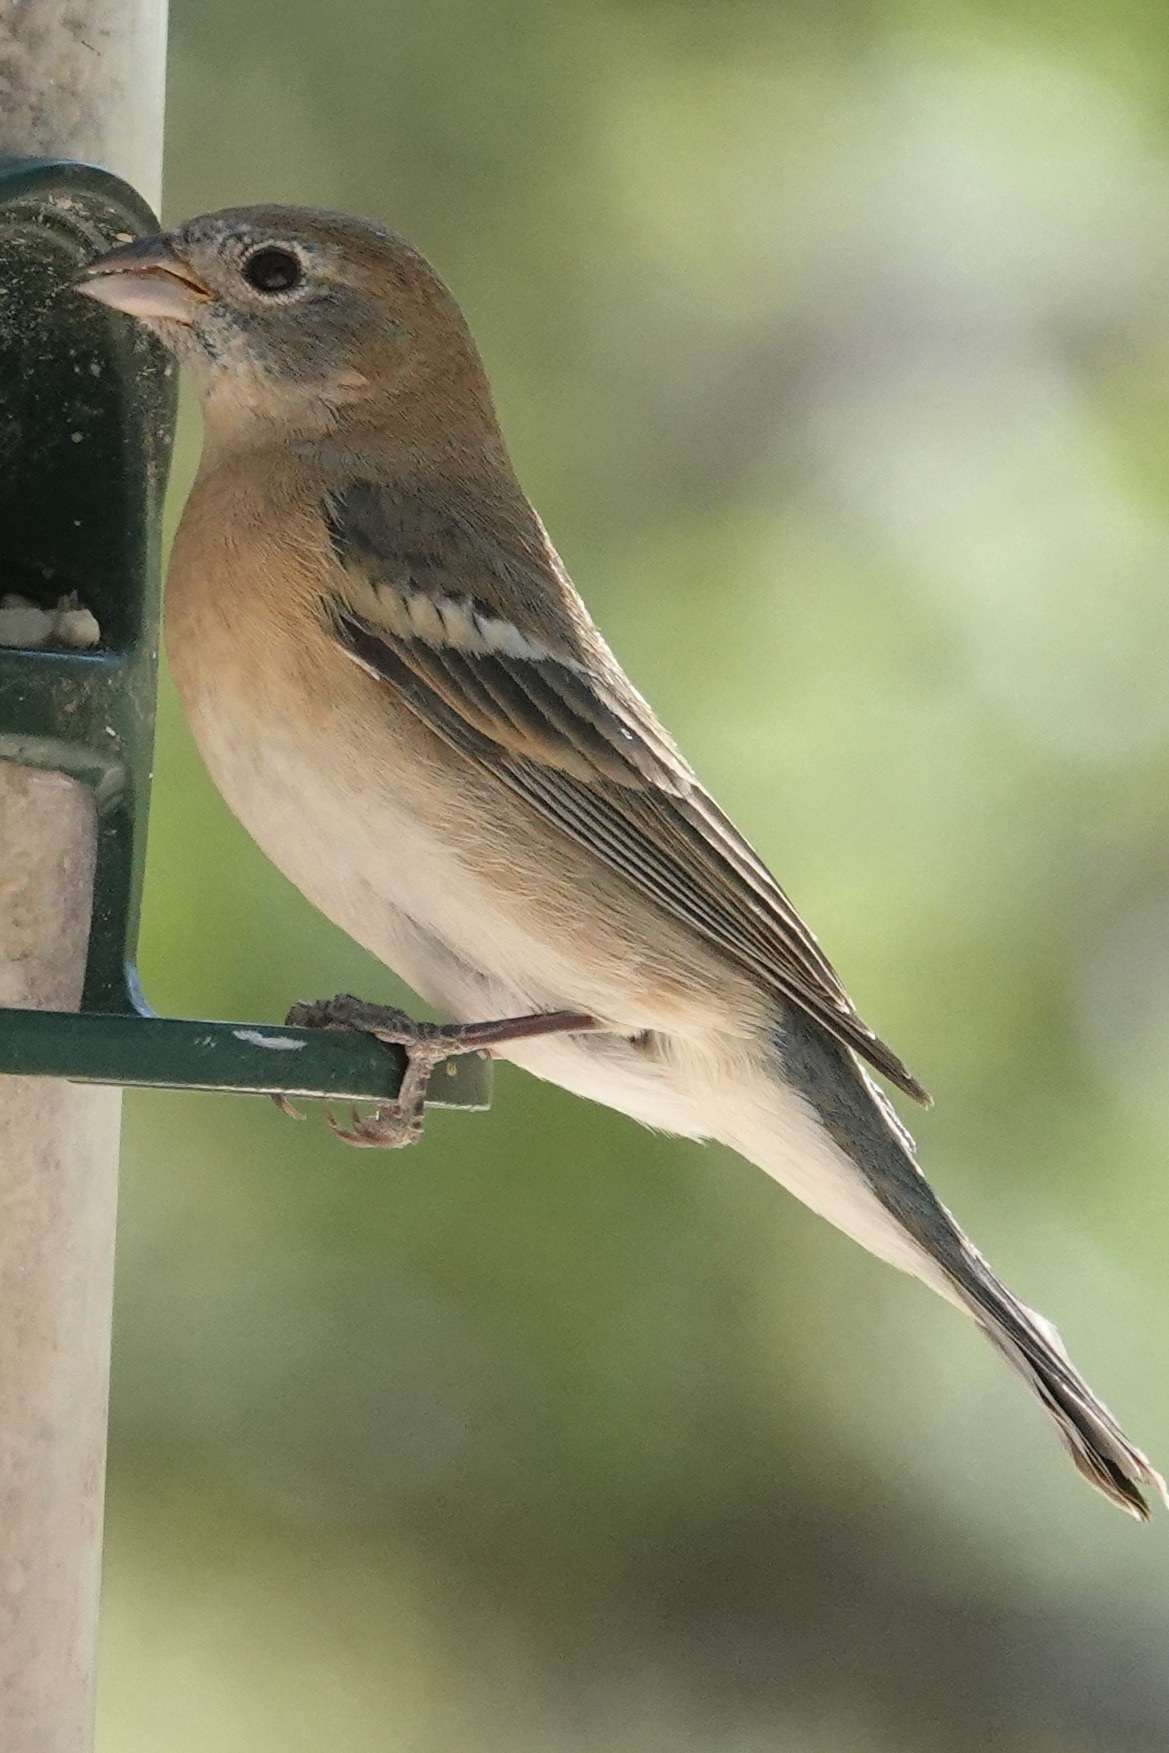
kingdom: Animalia
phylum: Chordata
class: Aves
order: Passeriformes
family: Cardinalidae
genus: Passerina
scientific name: Passerina amoena
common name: Lazuli bunting
